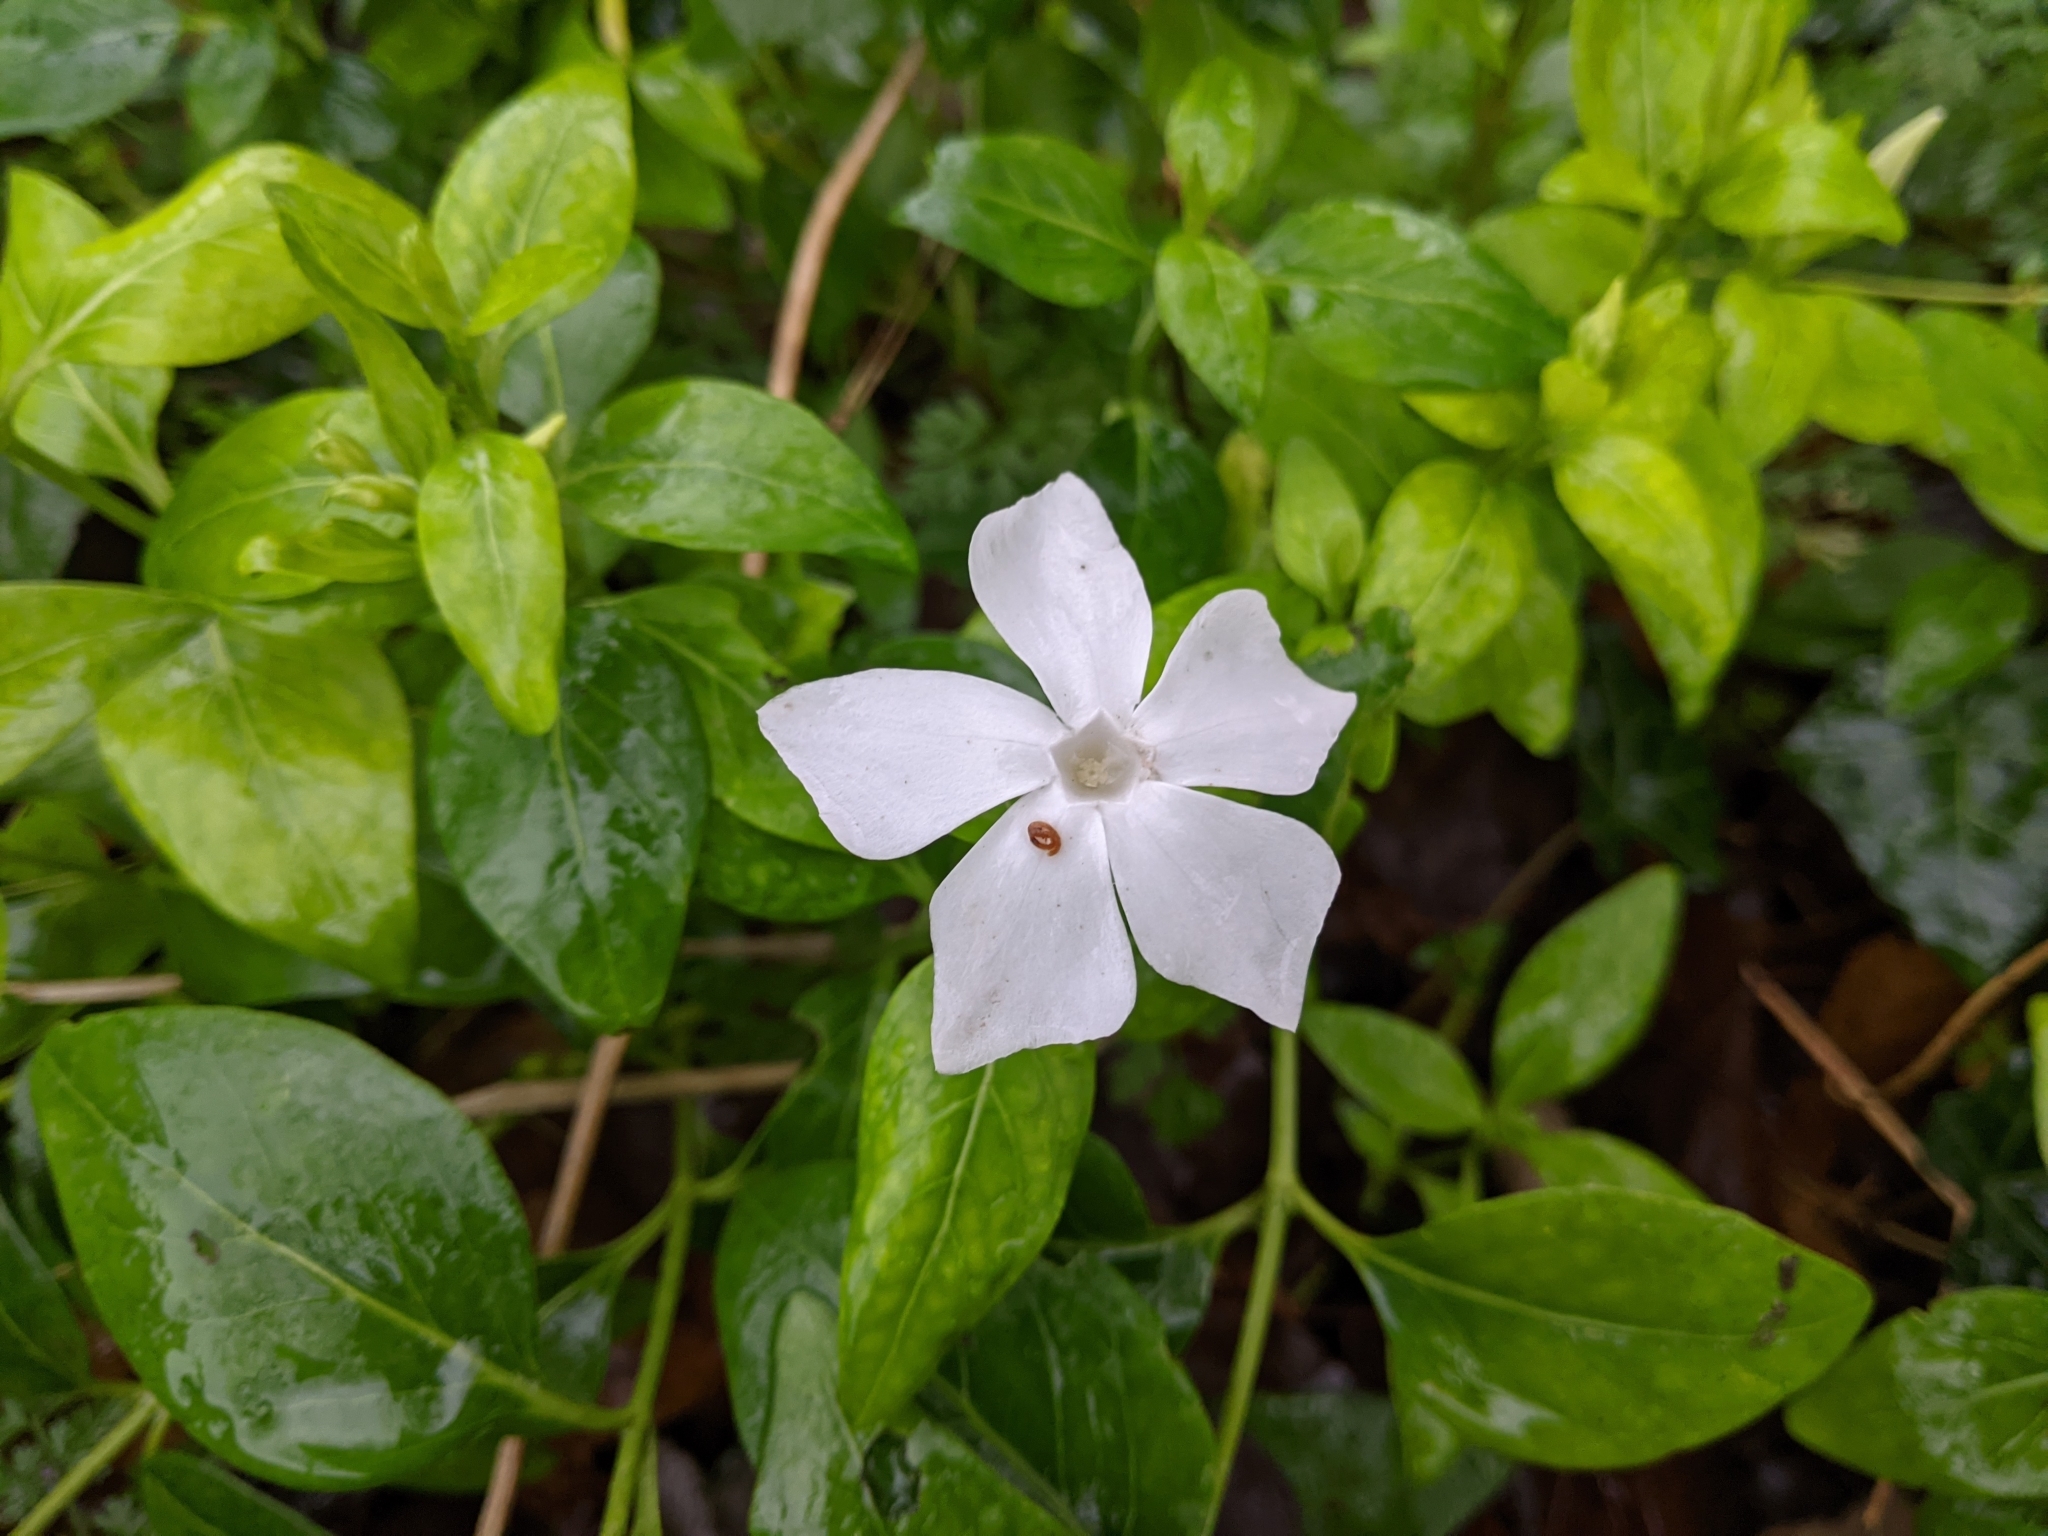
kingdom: Plantae
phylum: Tracheophyta
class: Magnoliopsida
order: Gentianales
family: Apocynaceae
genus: Vinca
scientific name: Vinca difformis
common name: Intermediate periwinkle
